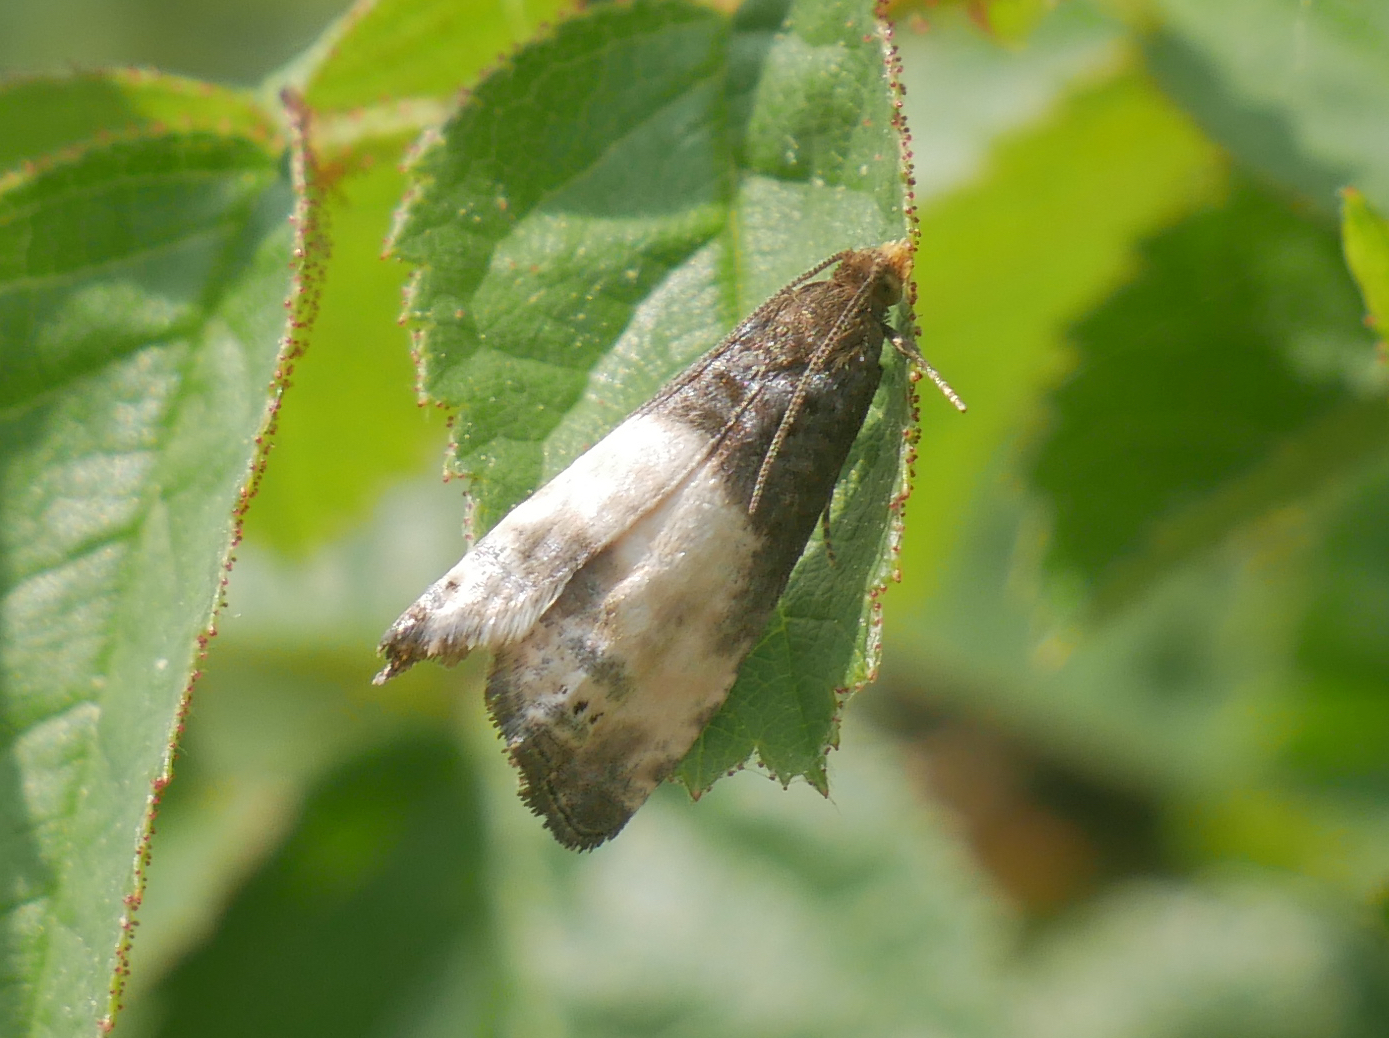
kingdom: Animalia
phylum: Arthropoda
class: Insecta
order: Lepidoptera
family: Tortricidae
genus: Notocelia
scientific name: Notocelia cynosbatella
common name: Yellow-faced bell moth
